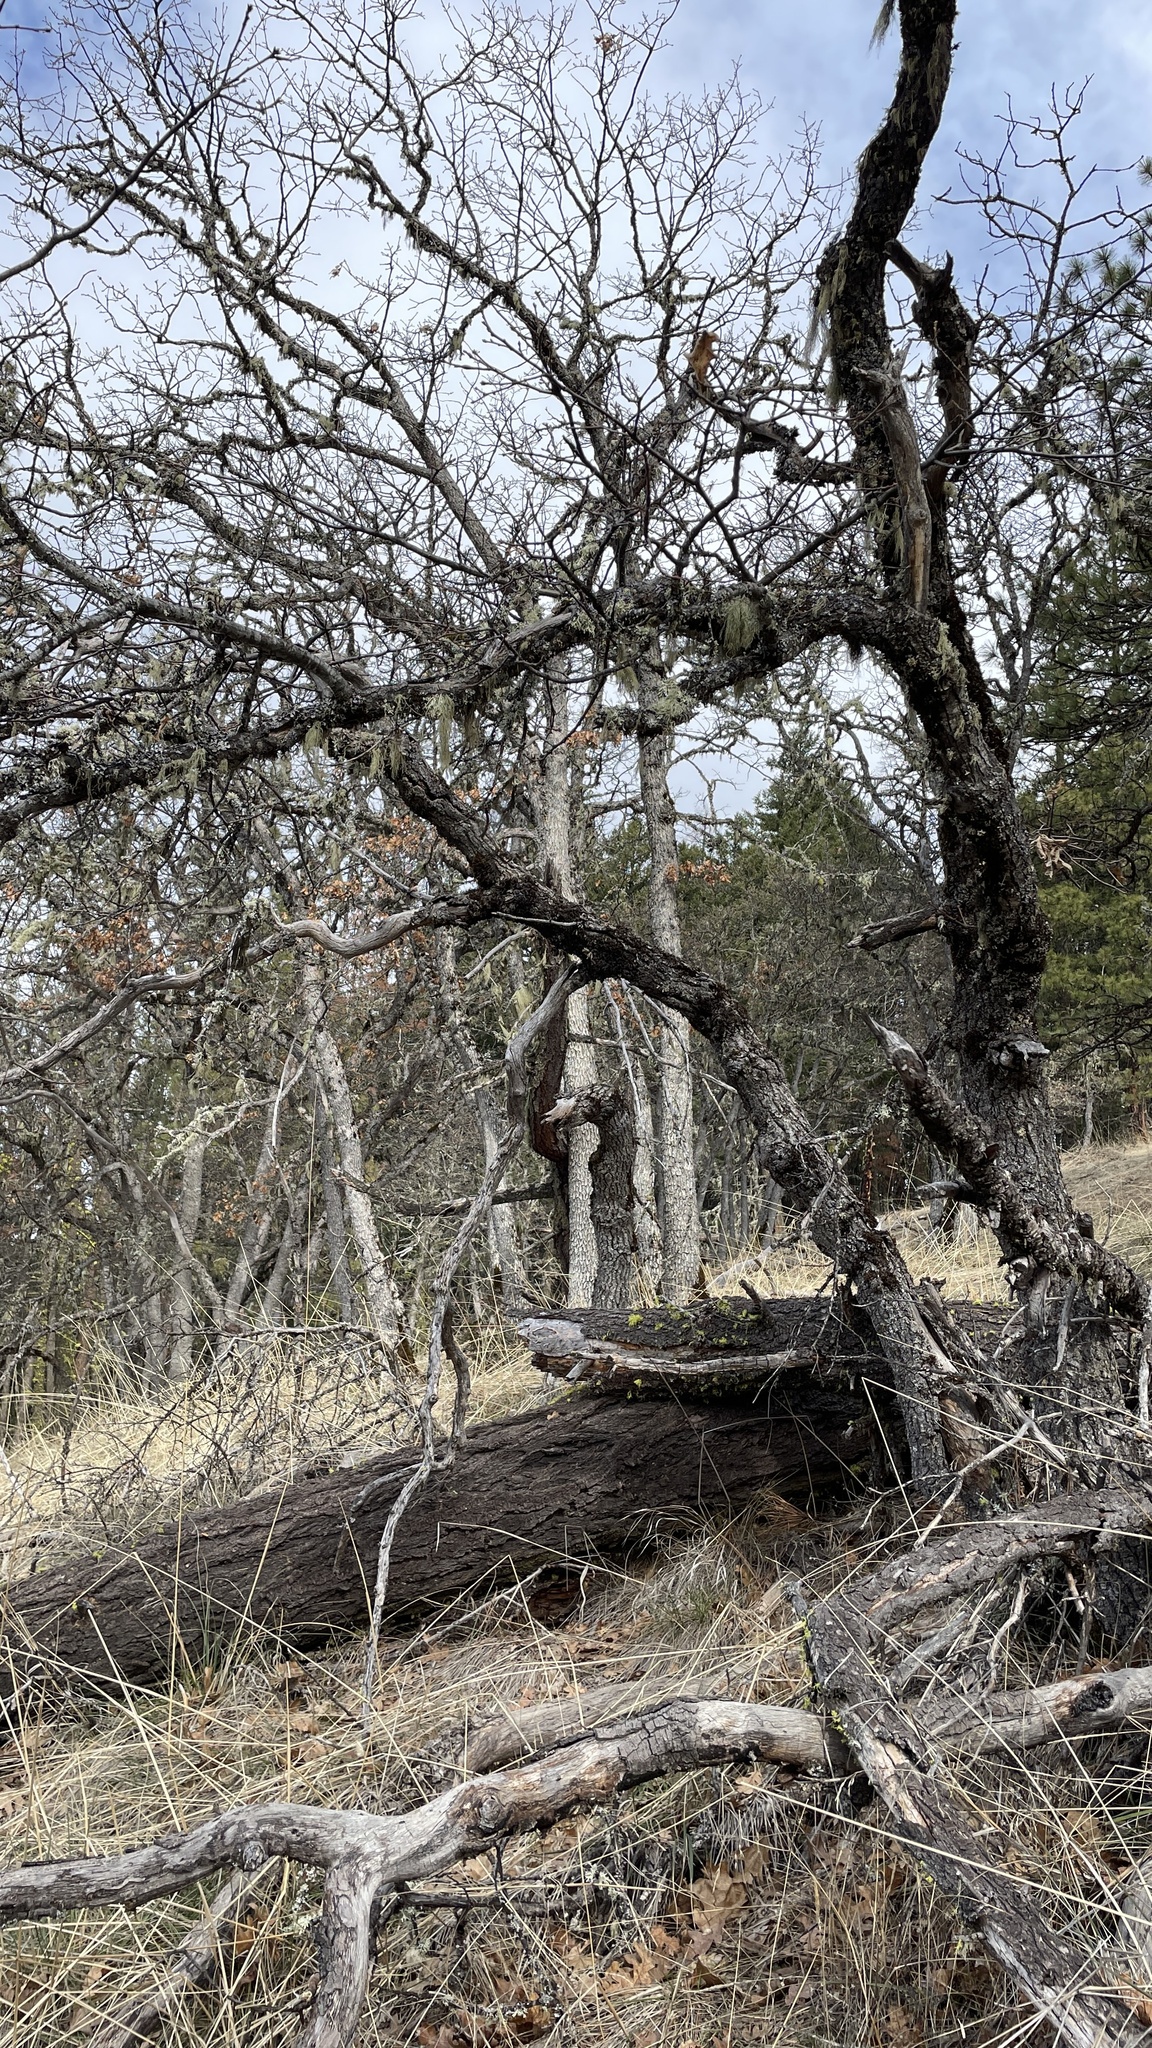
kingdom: Fungi
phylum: Ascomycota
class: Pezizomycetes
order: Pezizales
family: Tuberaceae
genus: Tuber
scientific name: Tuber candidum
